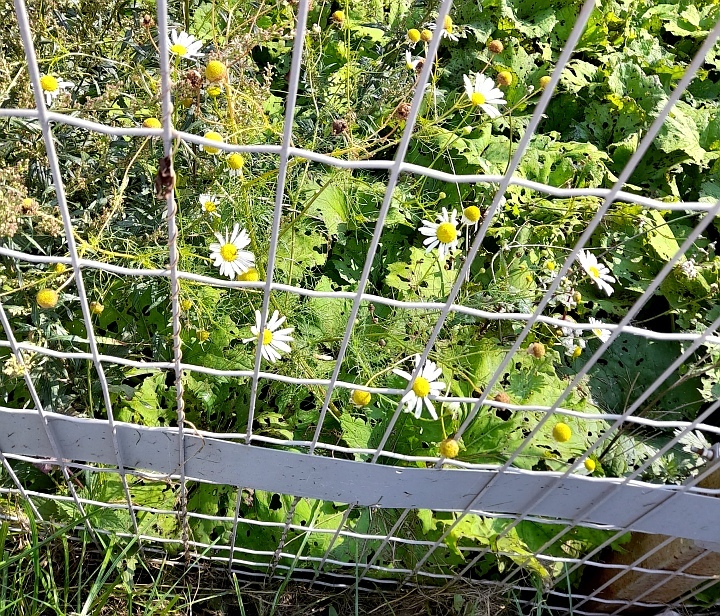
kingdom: Plantae
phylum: Tracheophyta
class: Magnoliopsida
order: Asterales
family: Asteraceae
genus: Tripleurospermum
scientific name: Tripleurospermum inodorum
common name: Scentless mayweed
